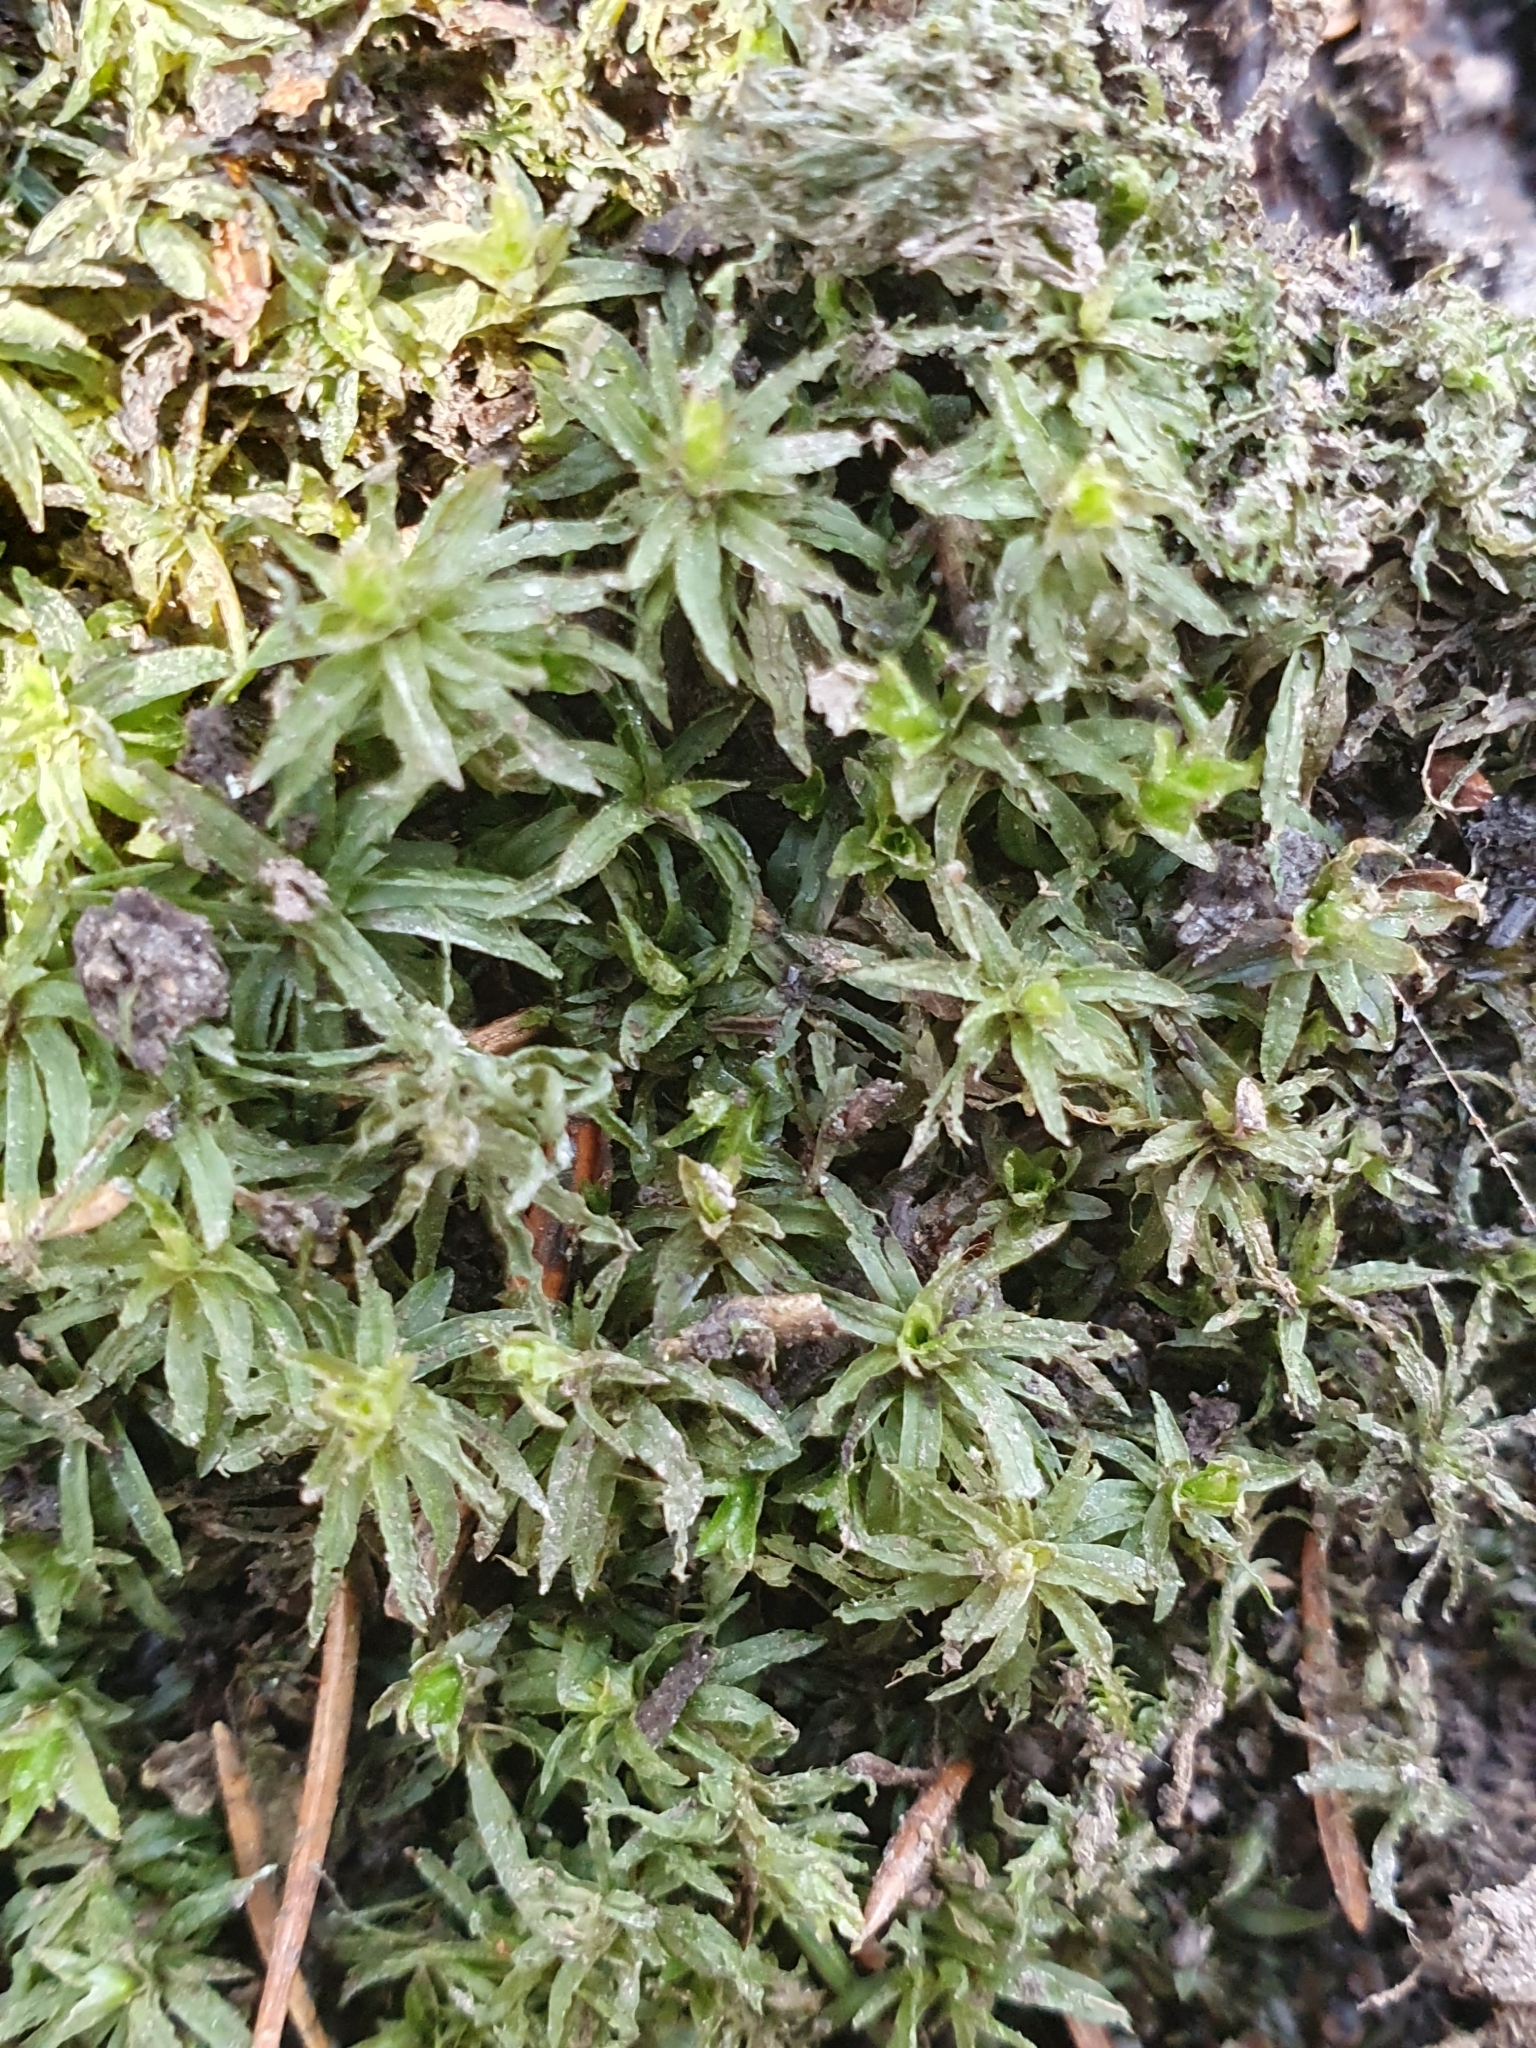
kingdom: Plantae
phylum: Bryophyta
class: Polytrichopsida
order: Polytrichales
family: Polytrichaceae
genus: Atrichum
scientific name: Atrichum undulatum
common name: Common smoothcap
